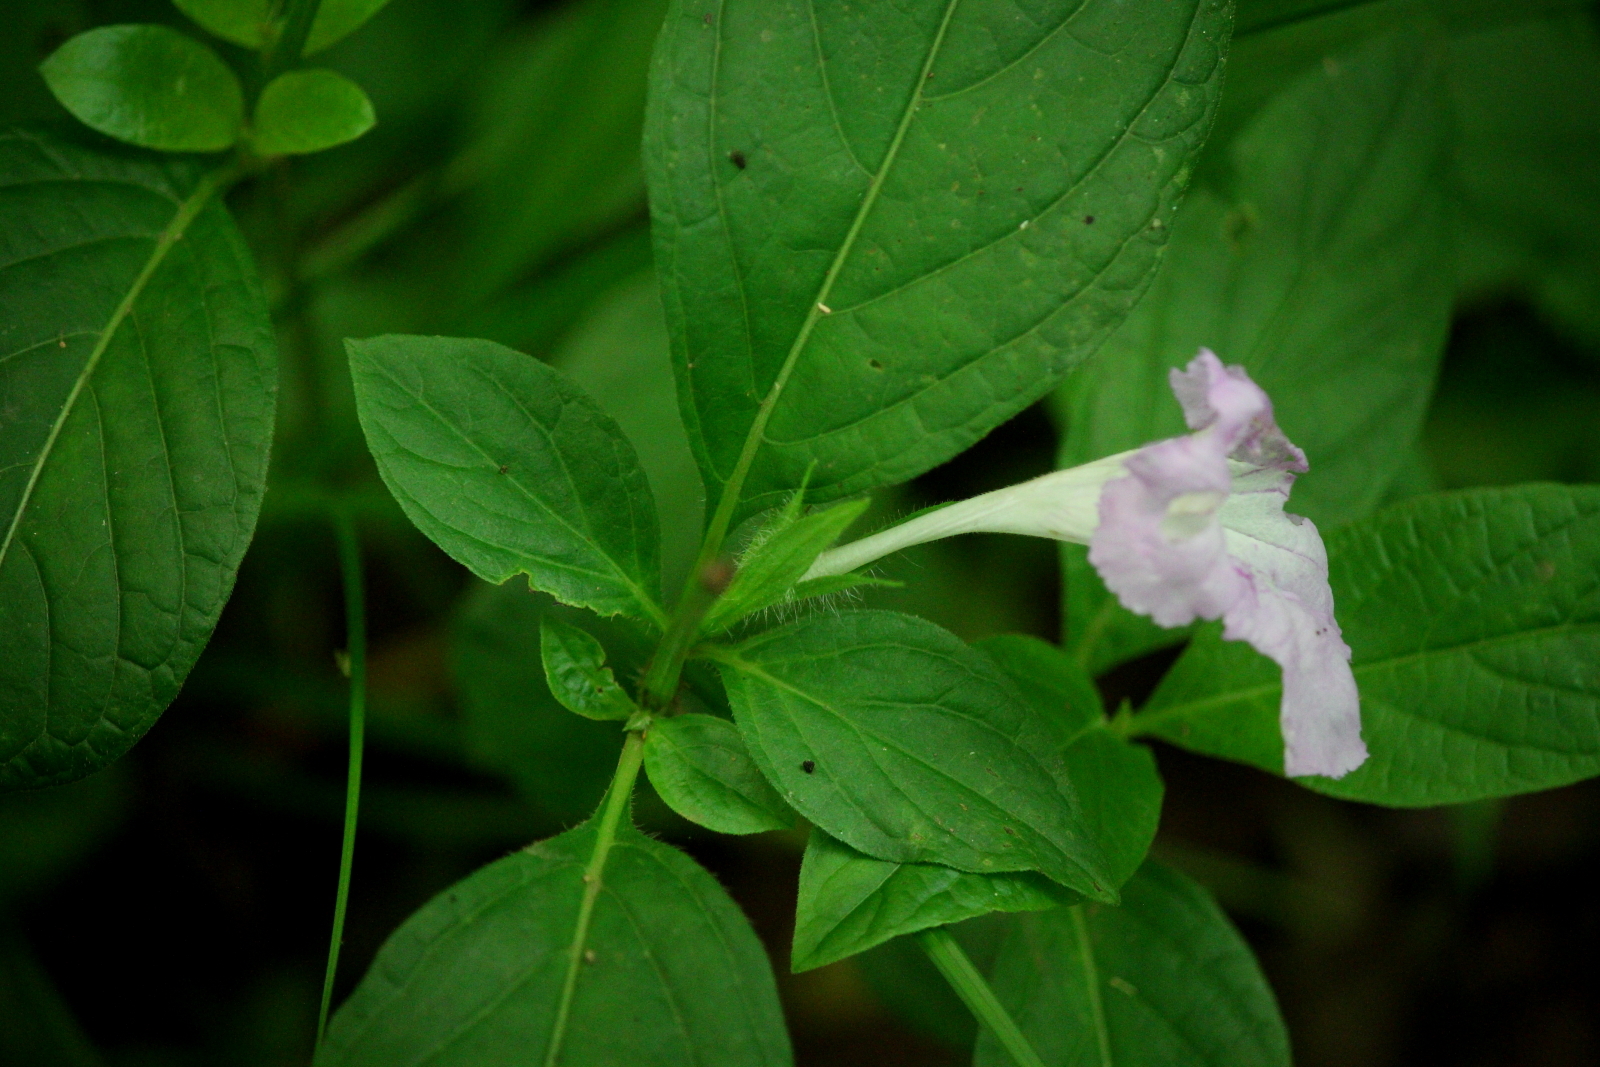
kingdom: Plantae
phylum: Tracheophyta
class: Magnoliopsida
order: Lamiales
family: Acanthaceae
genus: Ruellia
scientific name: Ruellia strepens
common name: Limestone wild petunia
